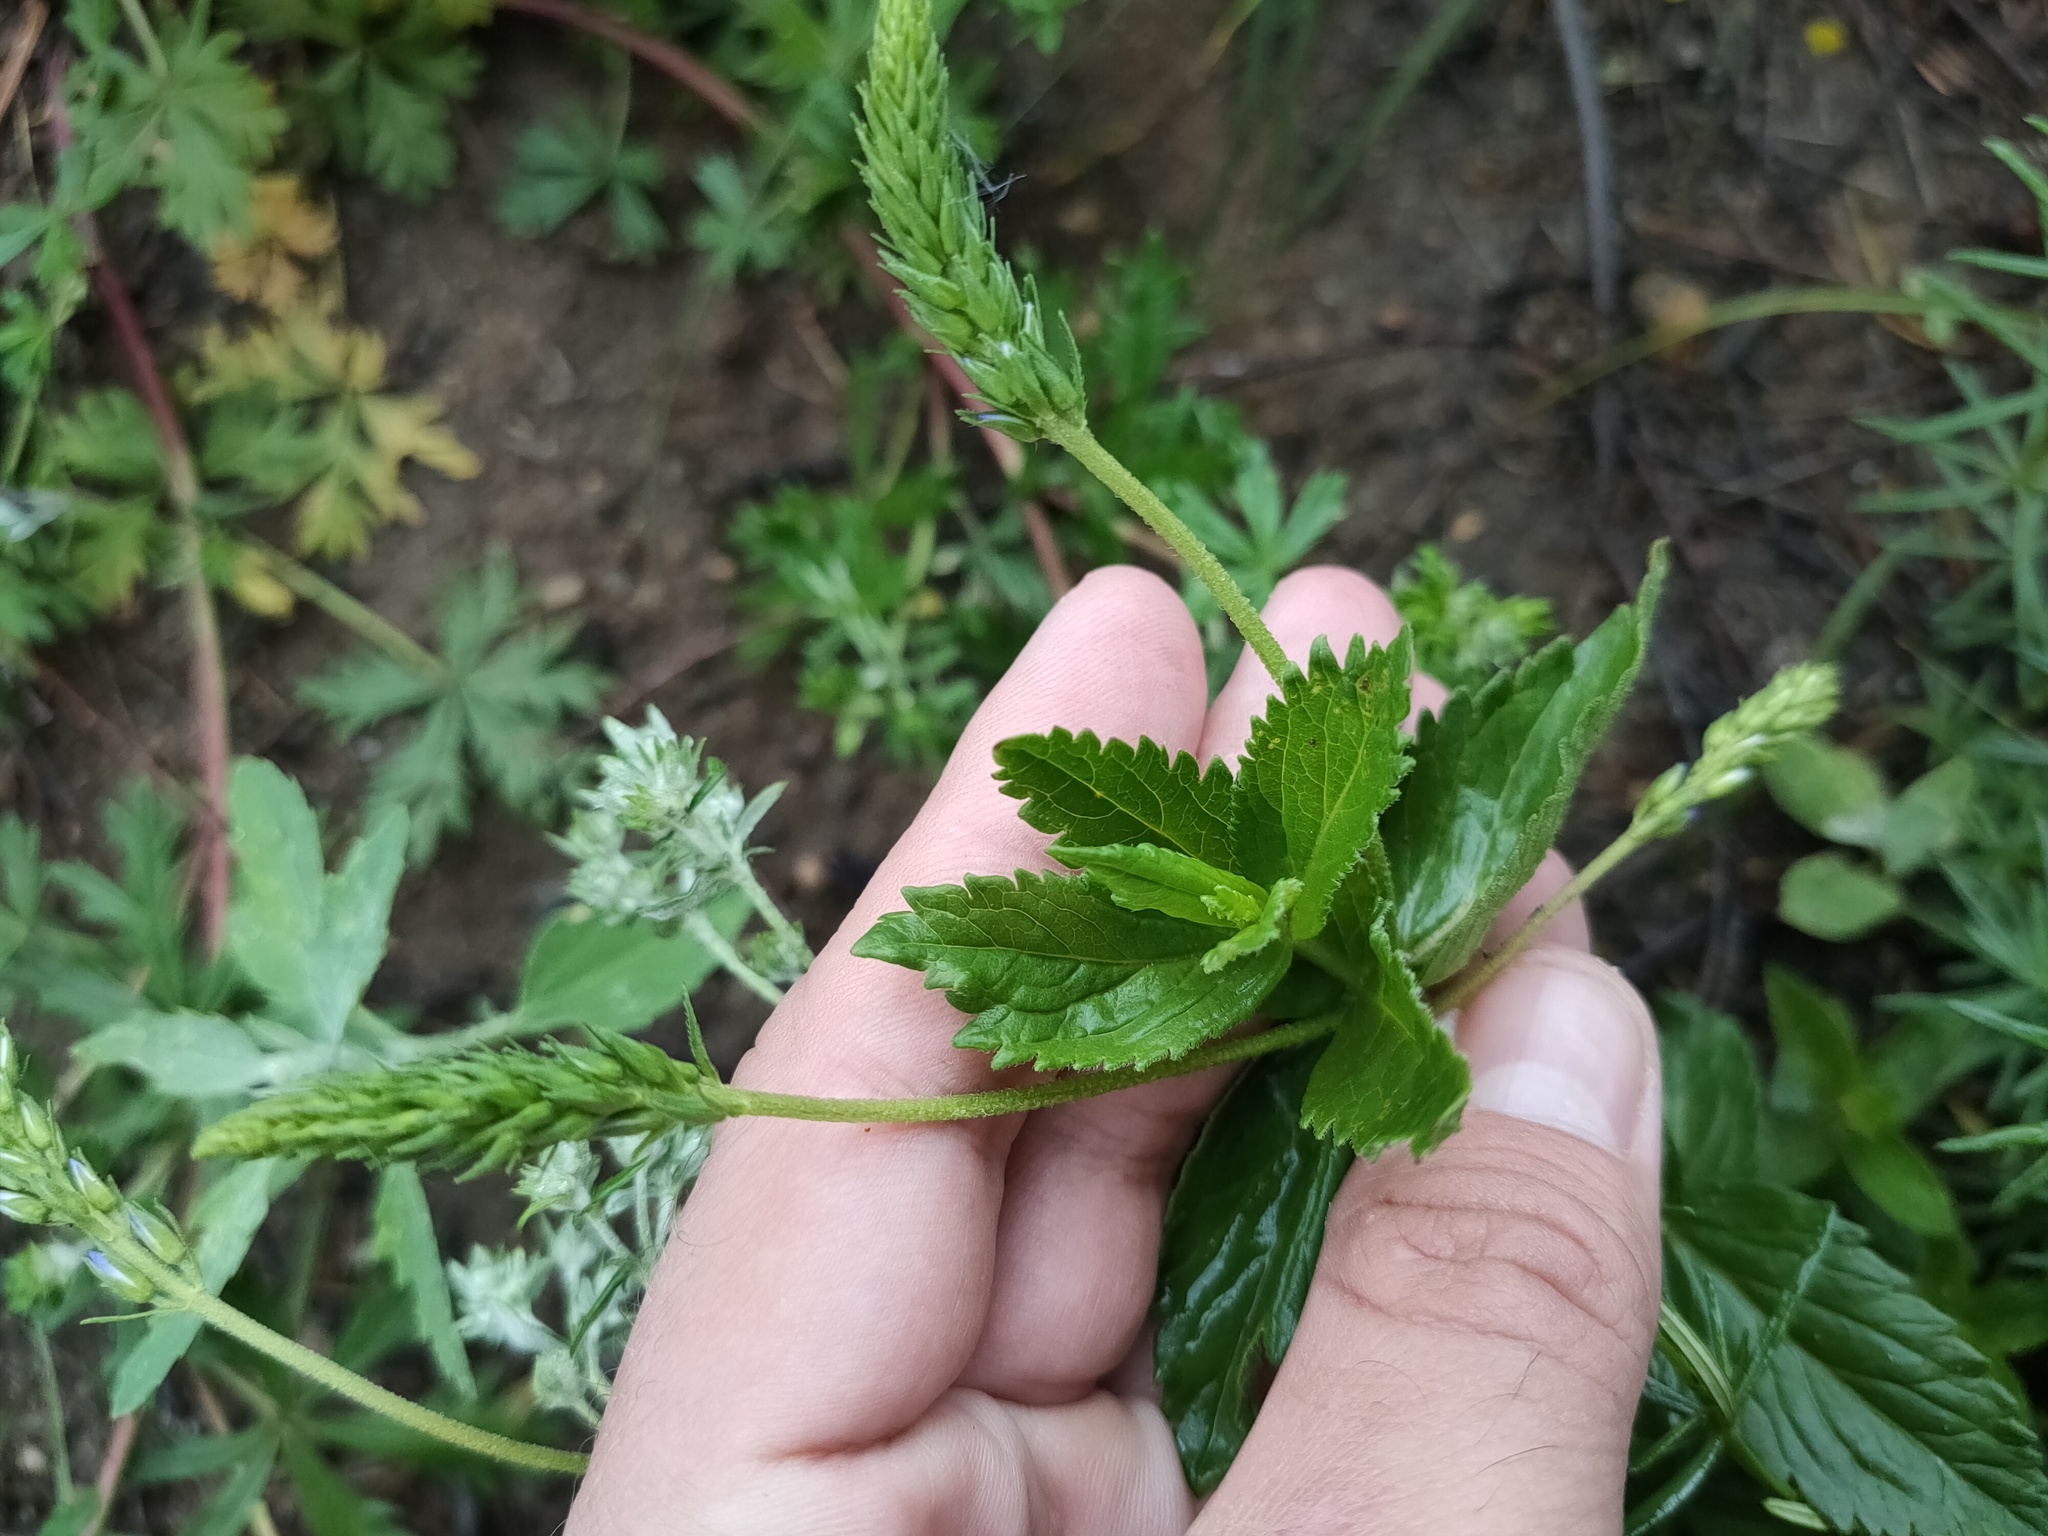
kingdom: Plantae
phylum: Tracheophyta
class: Magnoliopsida
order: Lamiales
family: Plantaginaceae
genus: Veronica
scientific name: Veronica teucrium
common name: Large speedwell
